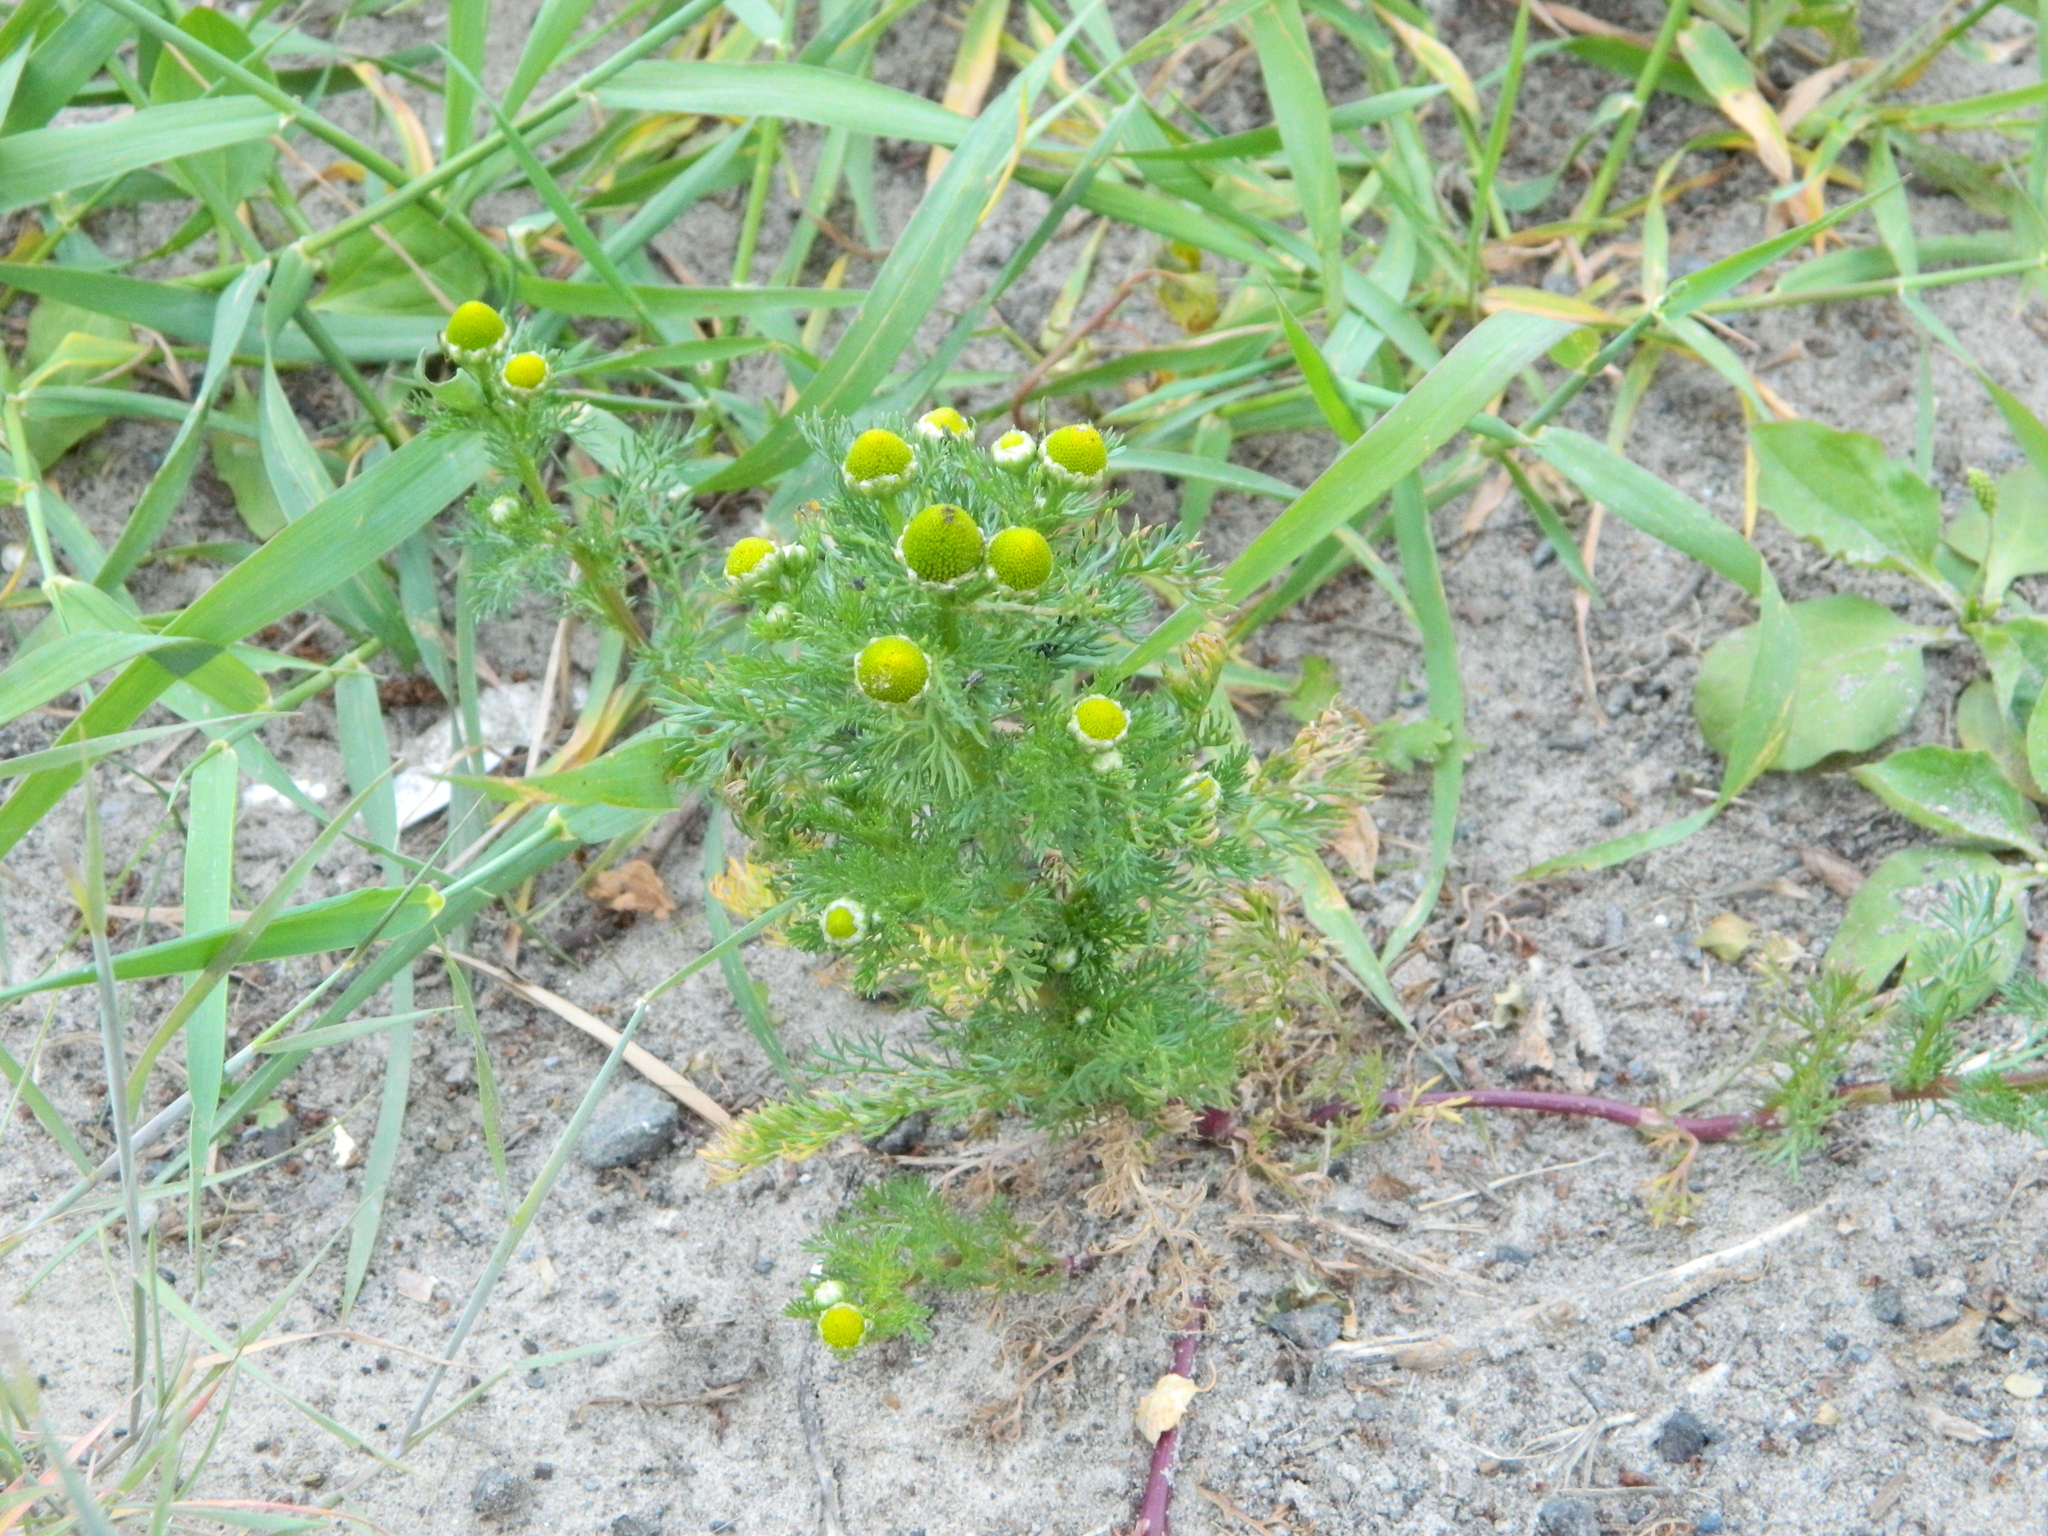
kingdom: Plantae
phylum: Tracheophyta
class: Magnoliopsida
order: Asterales
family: Asteraceae
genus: Matricaria
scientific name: Matricaria discoidea
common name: Disc mayweed
